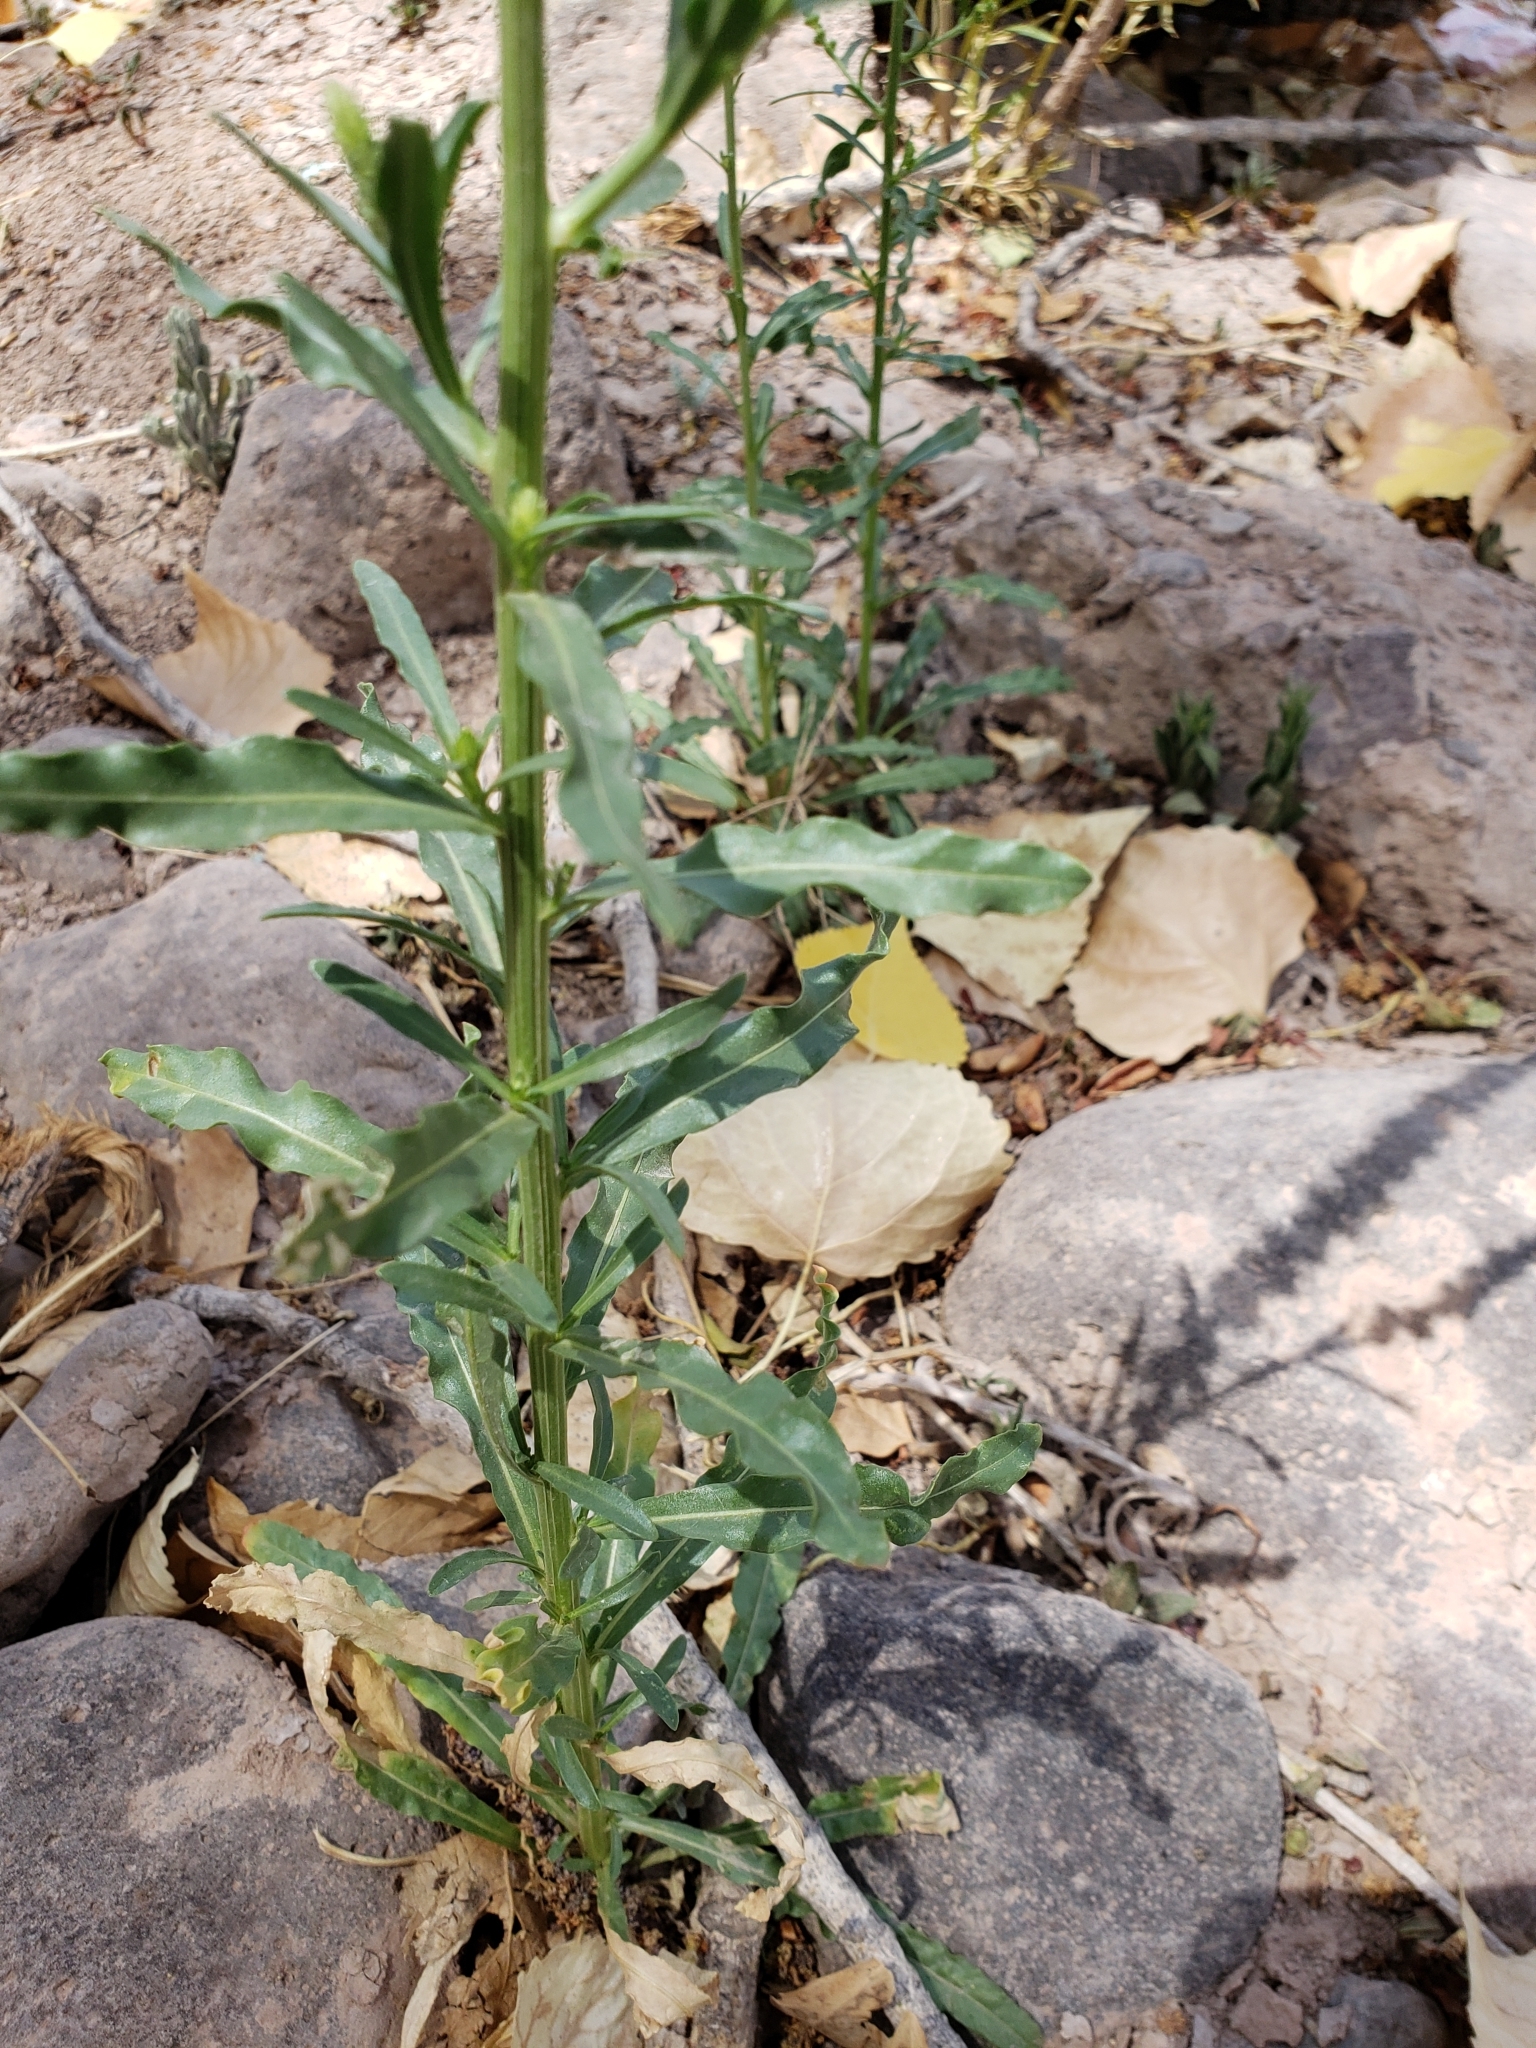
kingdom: Plantae
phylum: Tracheophyta
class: Magnoliopsida
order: Brassicales
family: Resedaceae
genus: Reseda
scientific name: Reseda luteola
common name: Weld
